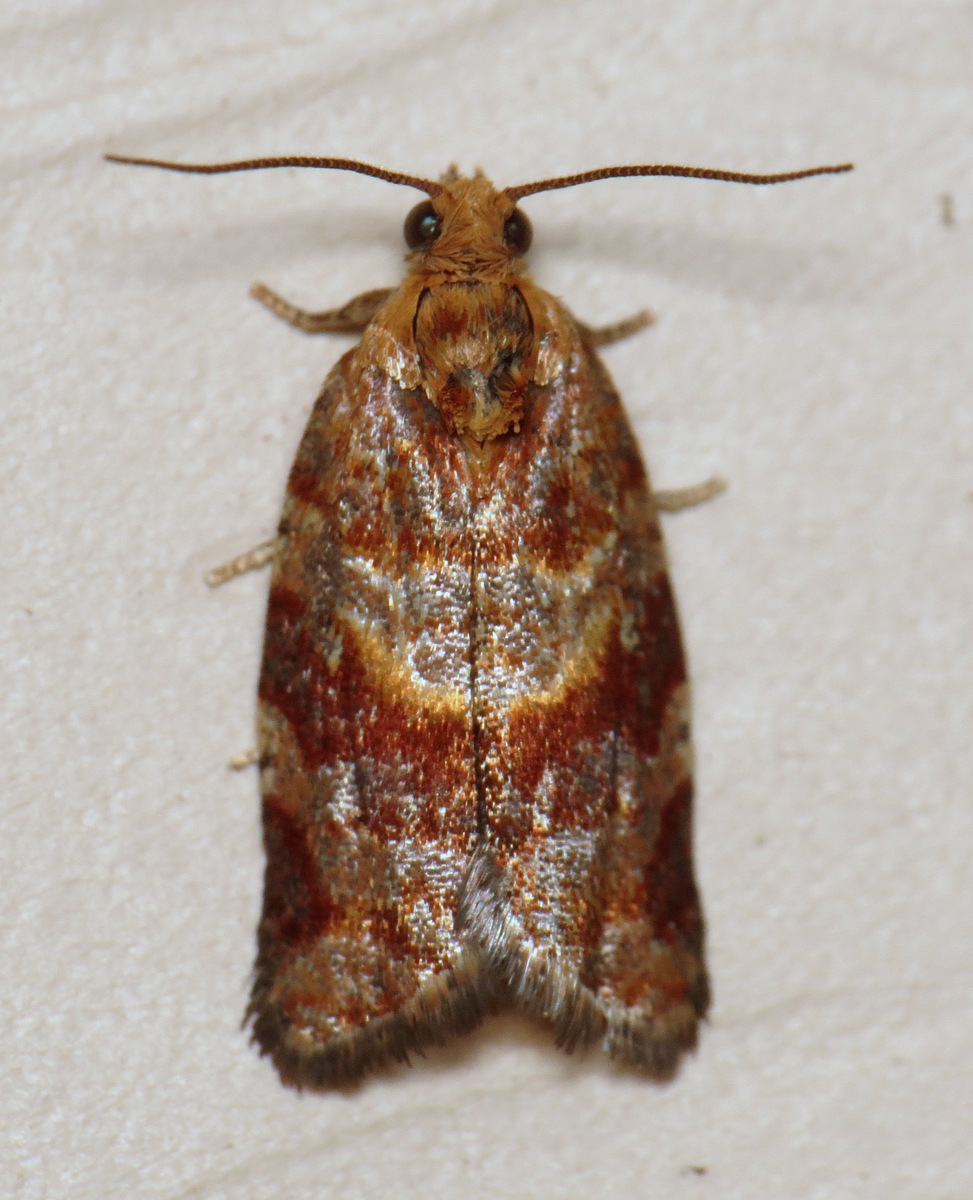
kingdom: Animalia
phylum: Arthropoda
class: Insecta
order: Lepidoptera
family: Tortricidae
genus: Argyrotaenia
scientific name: Argyrotaenia pinatubana
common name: Pine tube moth
